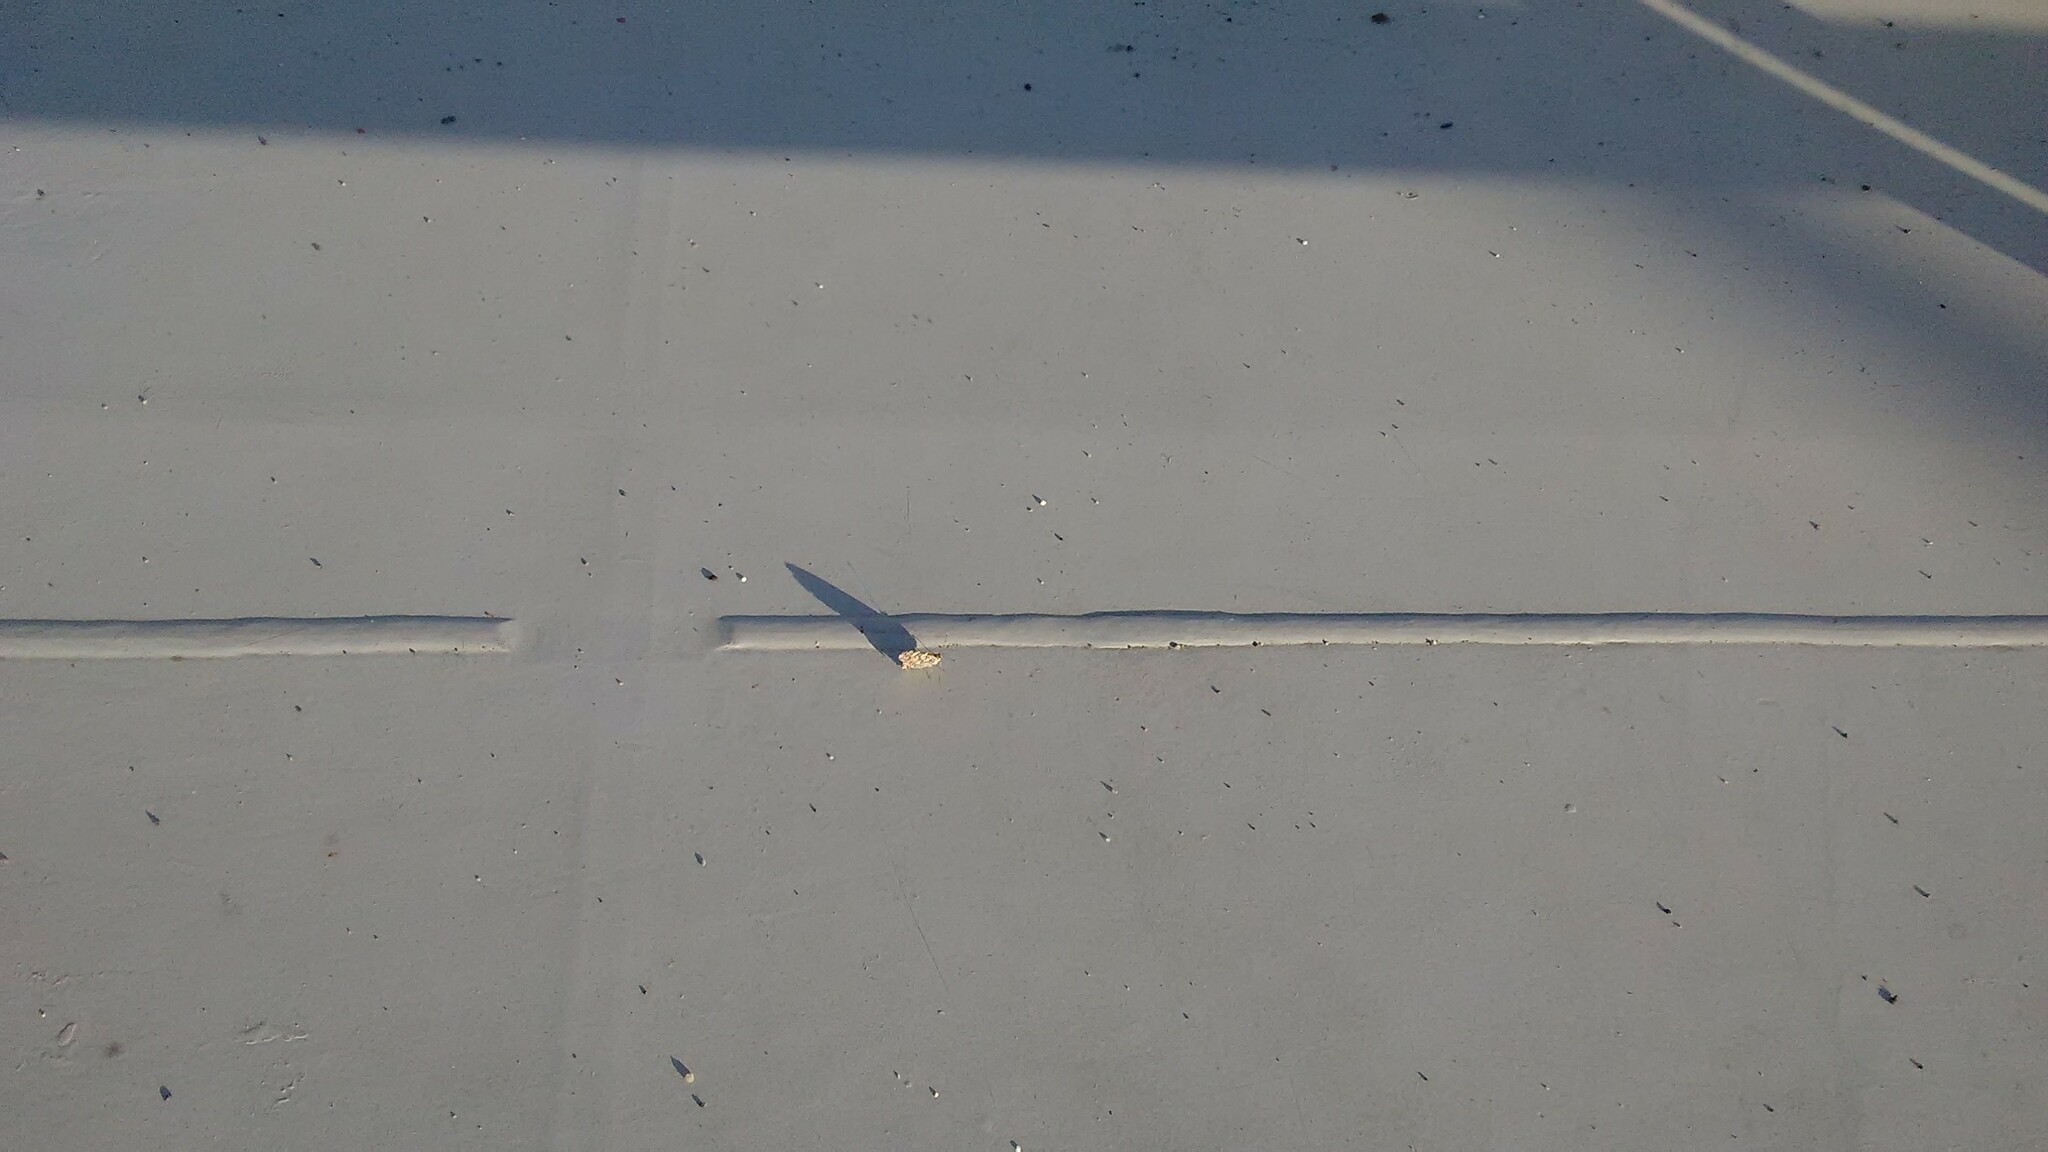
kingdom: Animalia
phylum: Arthropoda
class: Insecta
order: Lepidoptera
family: Nymphalidae
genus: Vanessa
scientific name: Vanessa cardui
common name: Painted lady
